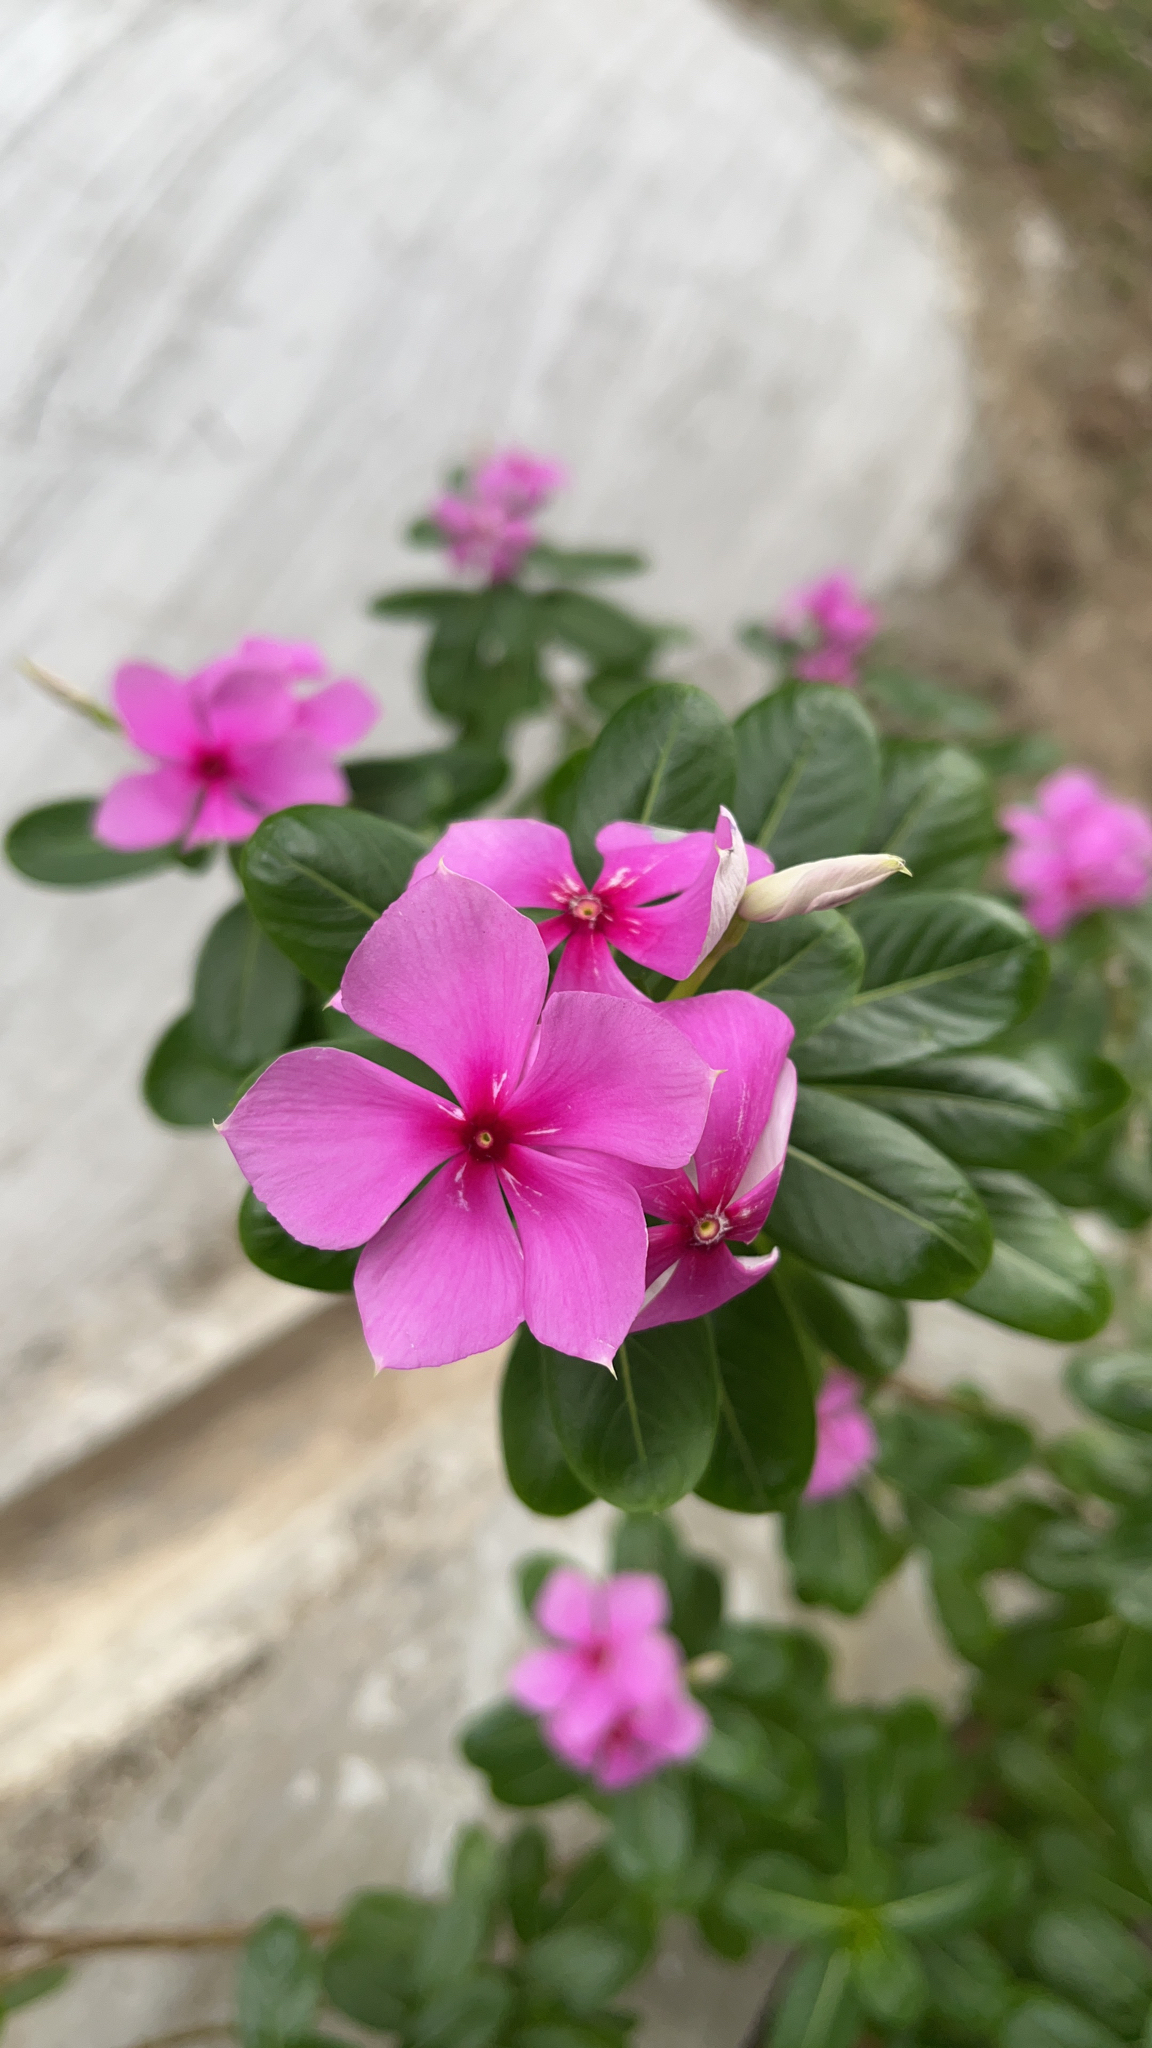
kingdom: Plantae
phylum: Tracheophyta
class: Magnoliopsida
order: Gentianales
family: Apocynaceae
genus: Catharanthus
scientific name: Catharanthus roseus
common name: Madagascar periwinkle
